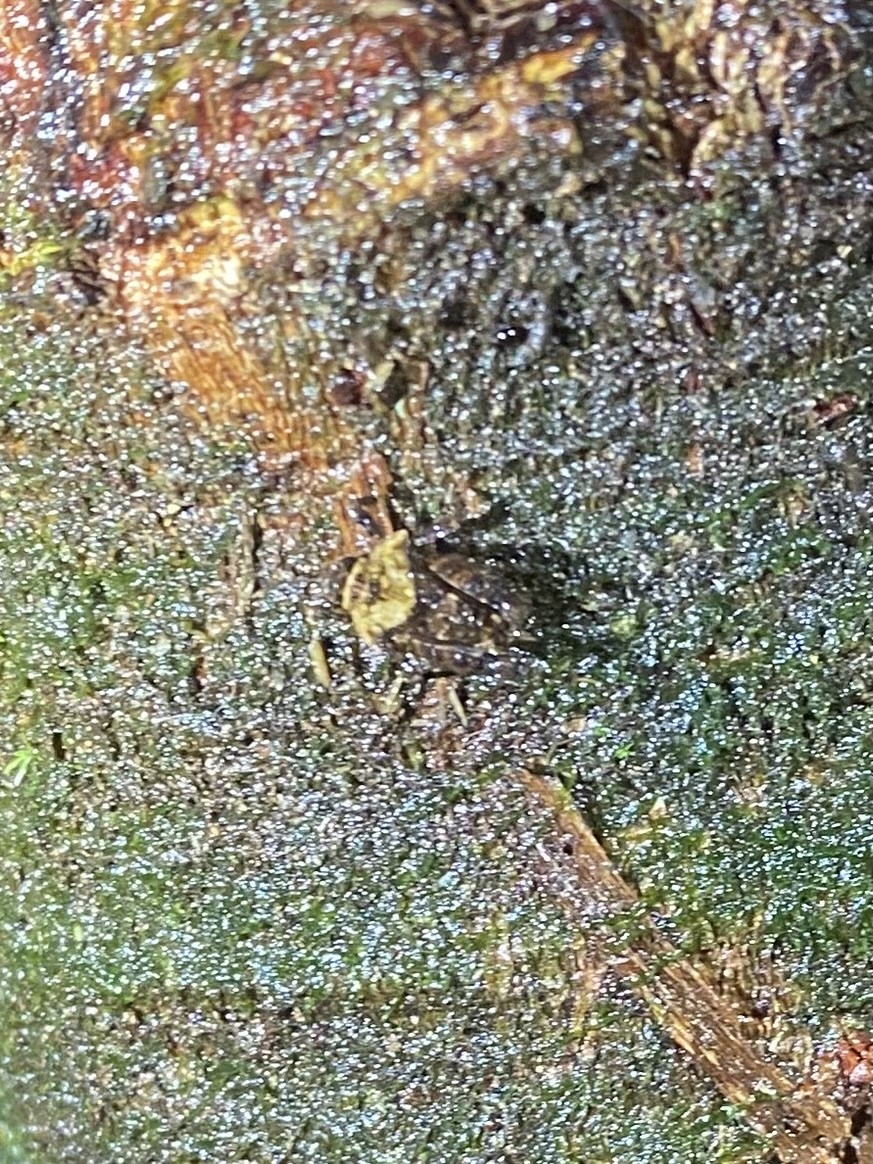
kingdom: Animalia
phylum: Arthropoda
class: Insecta
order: Orthoptera
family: Tetrigidae
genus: Metrodora
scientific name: Metrodora panamae
